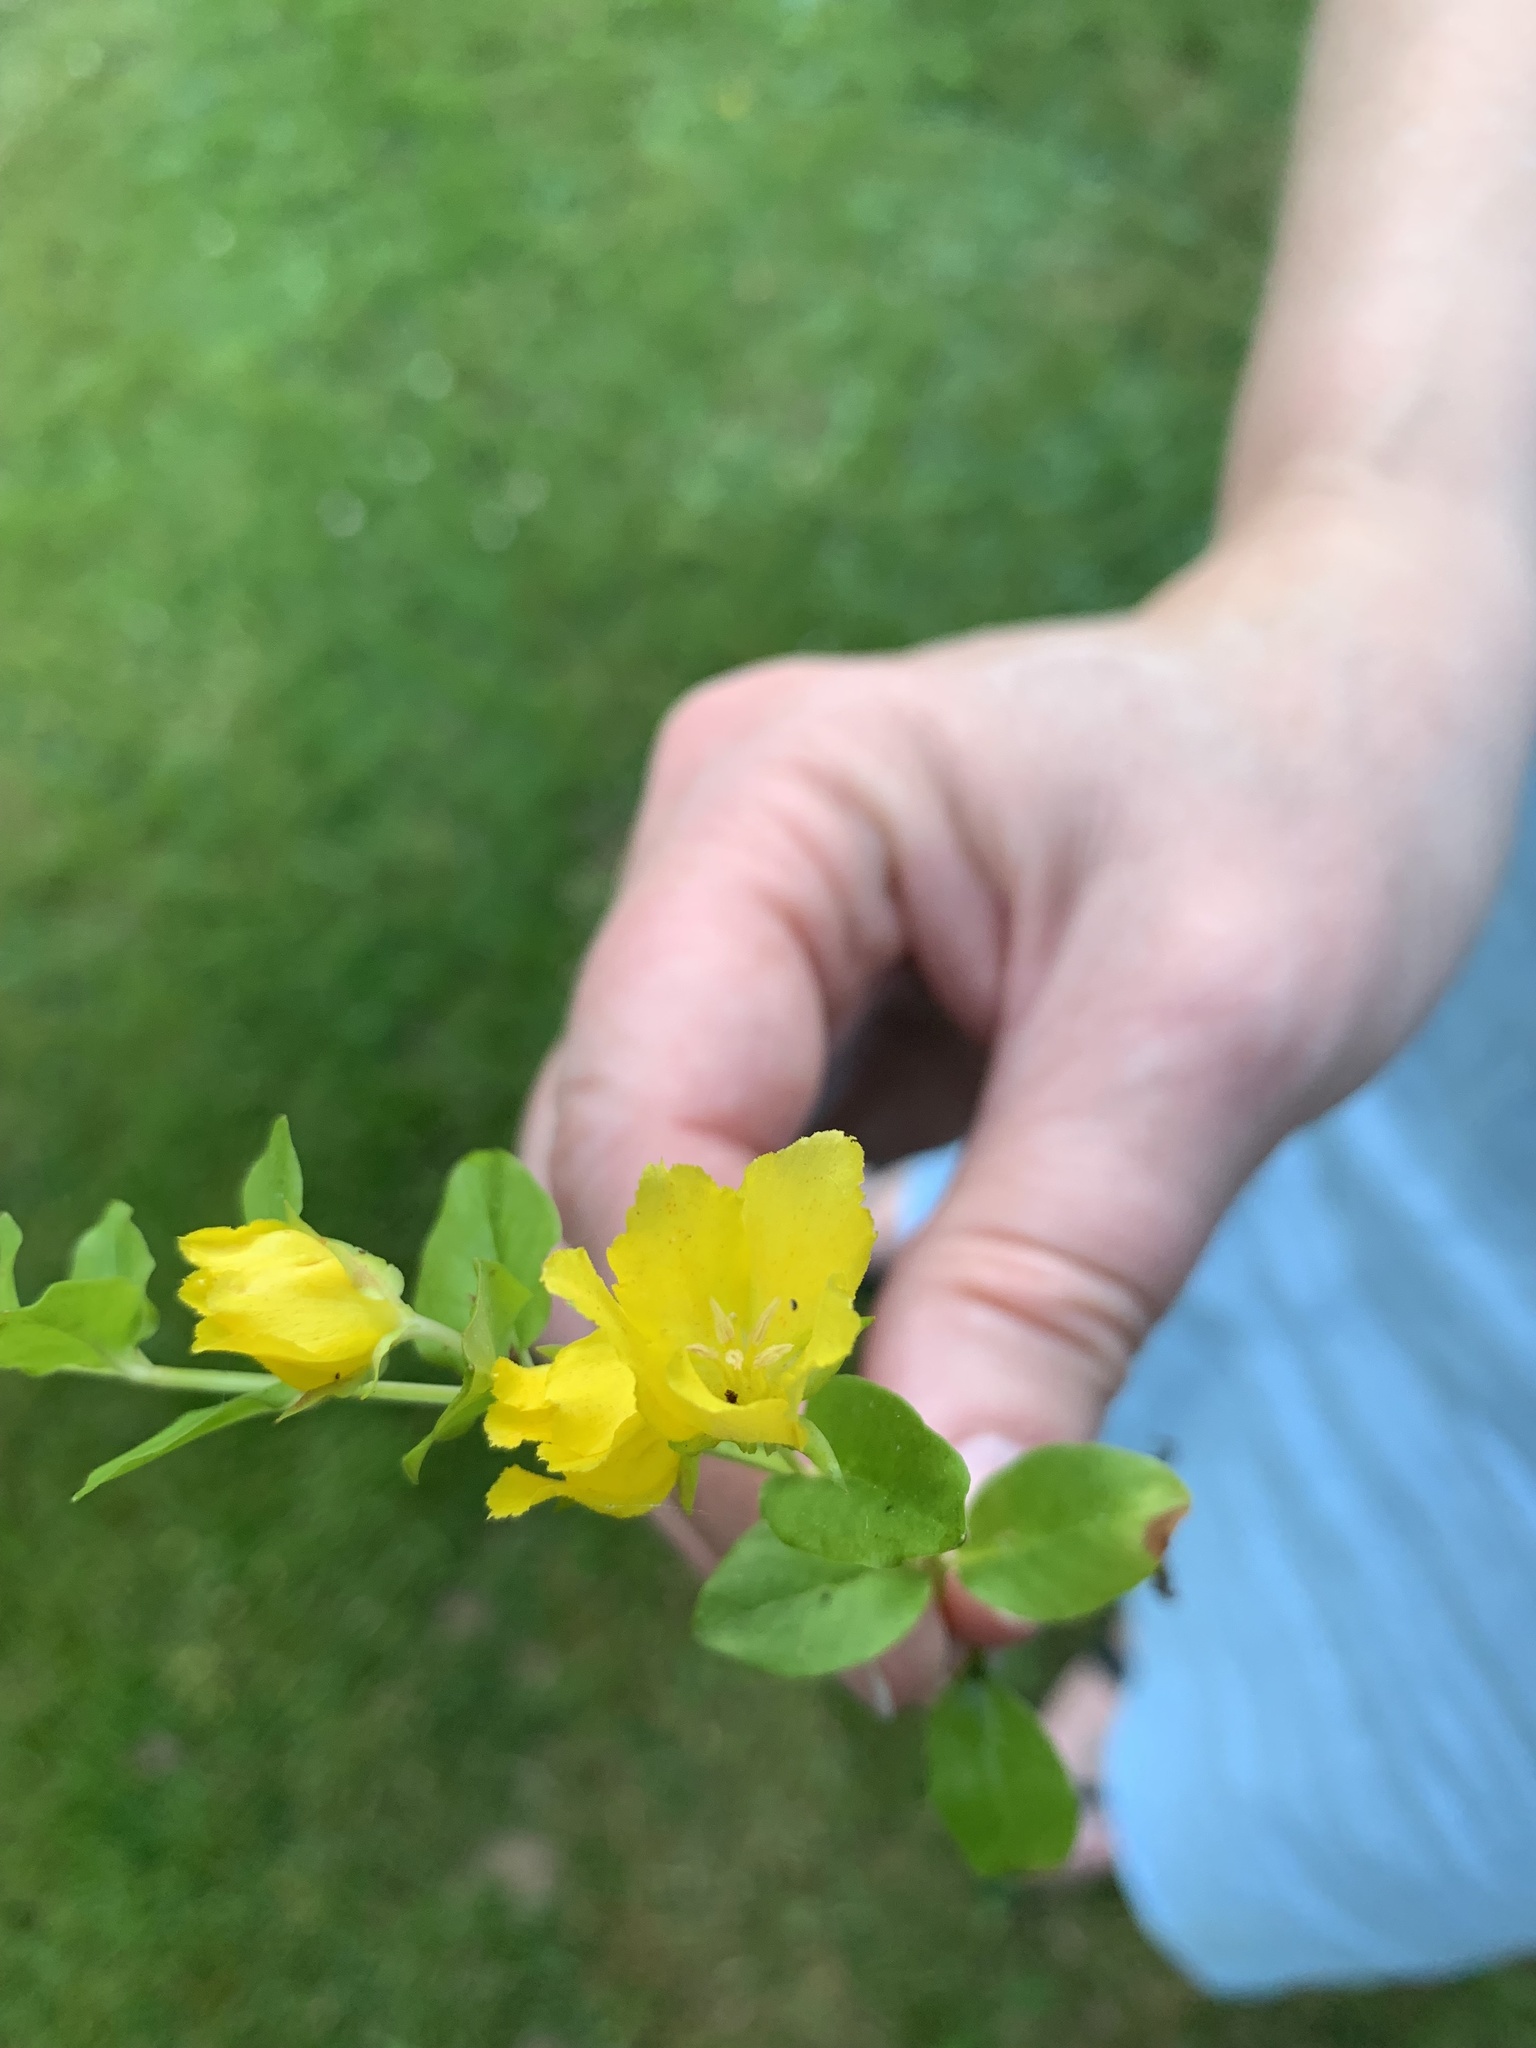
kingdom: Plantae
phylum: Tracheophyta
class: Magnoliopsida
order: Ericales
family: Primulaceae
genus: Lysimachia
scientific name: Lysimachia nummularia
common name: Moneywort
